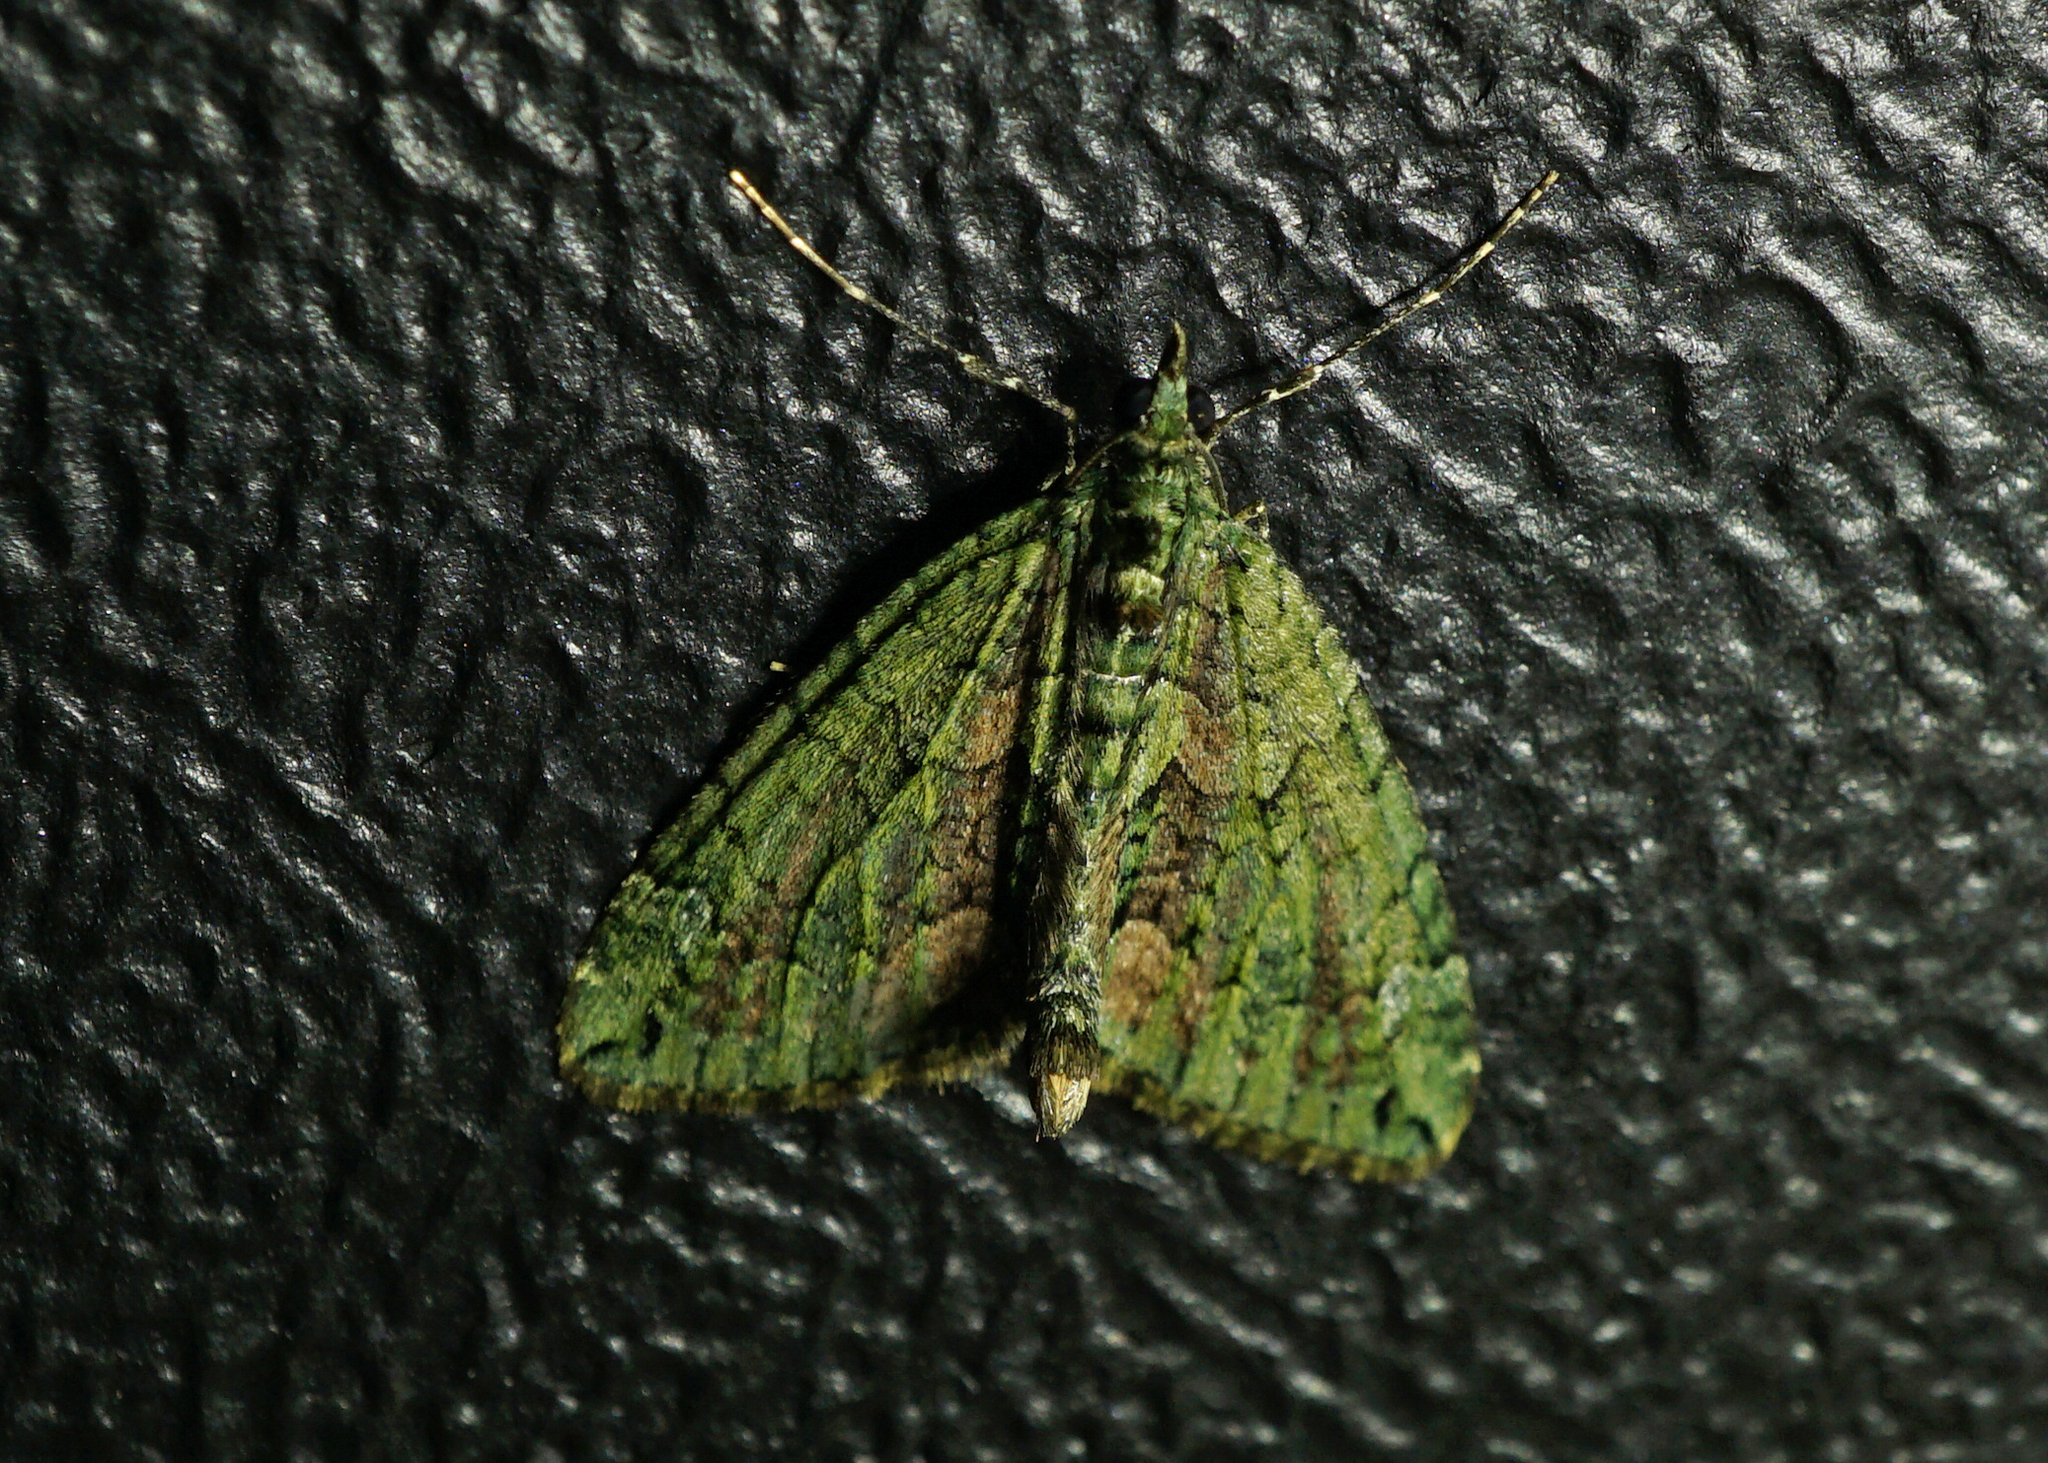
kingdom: Animalia
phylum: Arthropoda
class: Insecta
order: Lepidoptera
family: Geometridae
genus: Chloroclysta
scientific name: Chloroclysta siterata
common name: Red-green carpet
